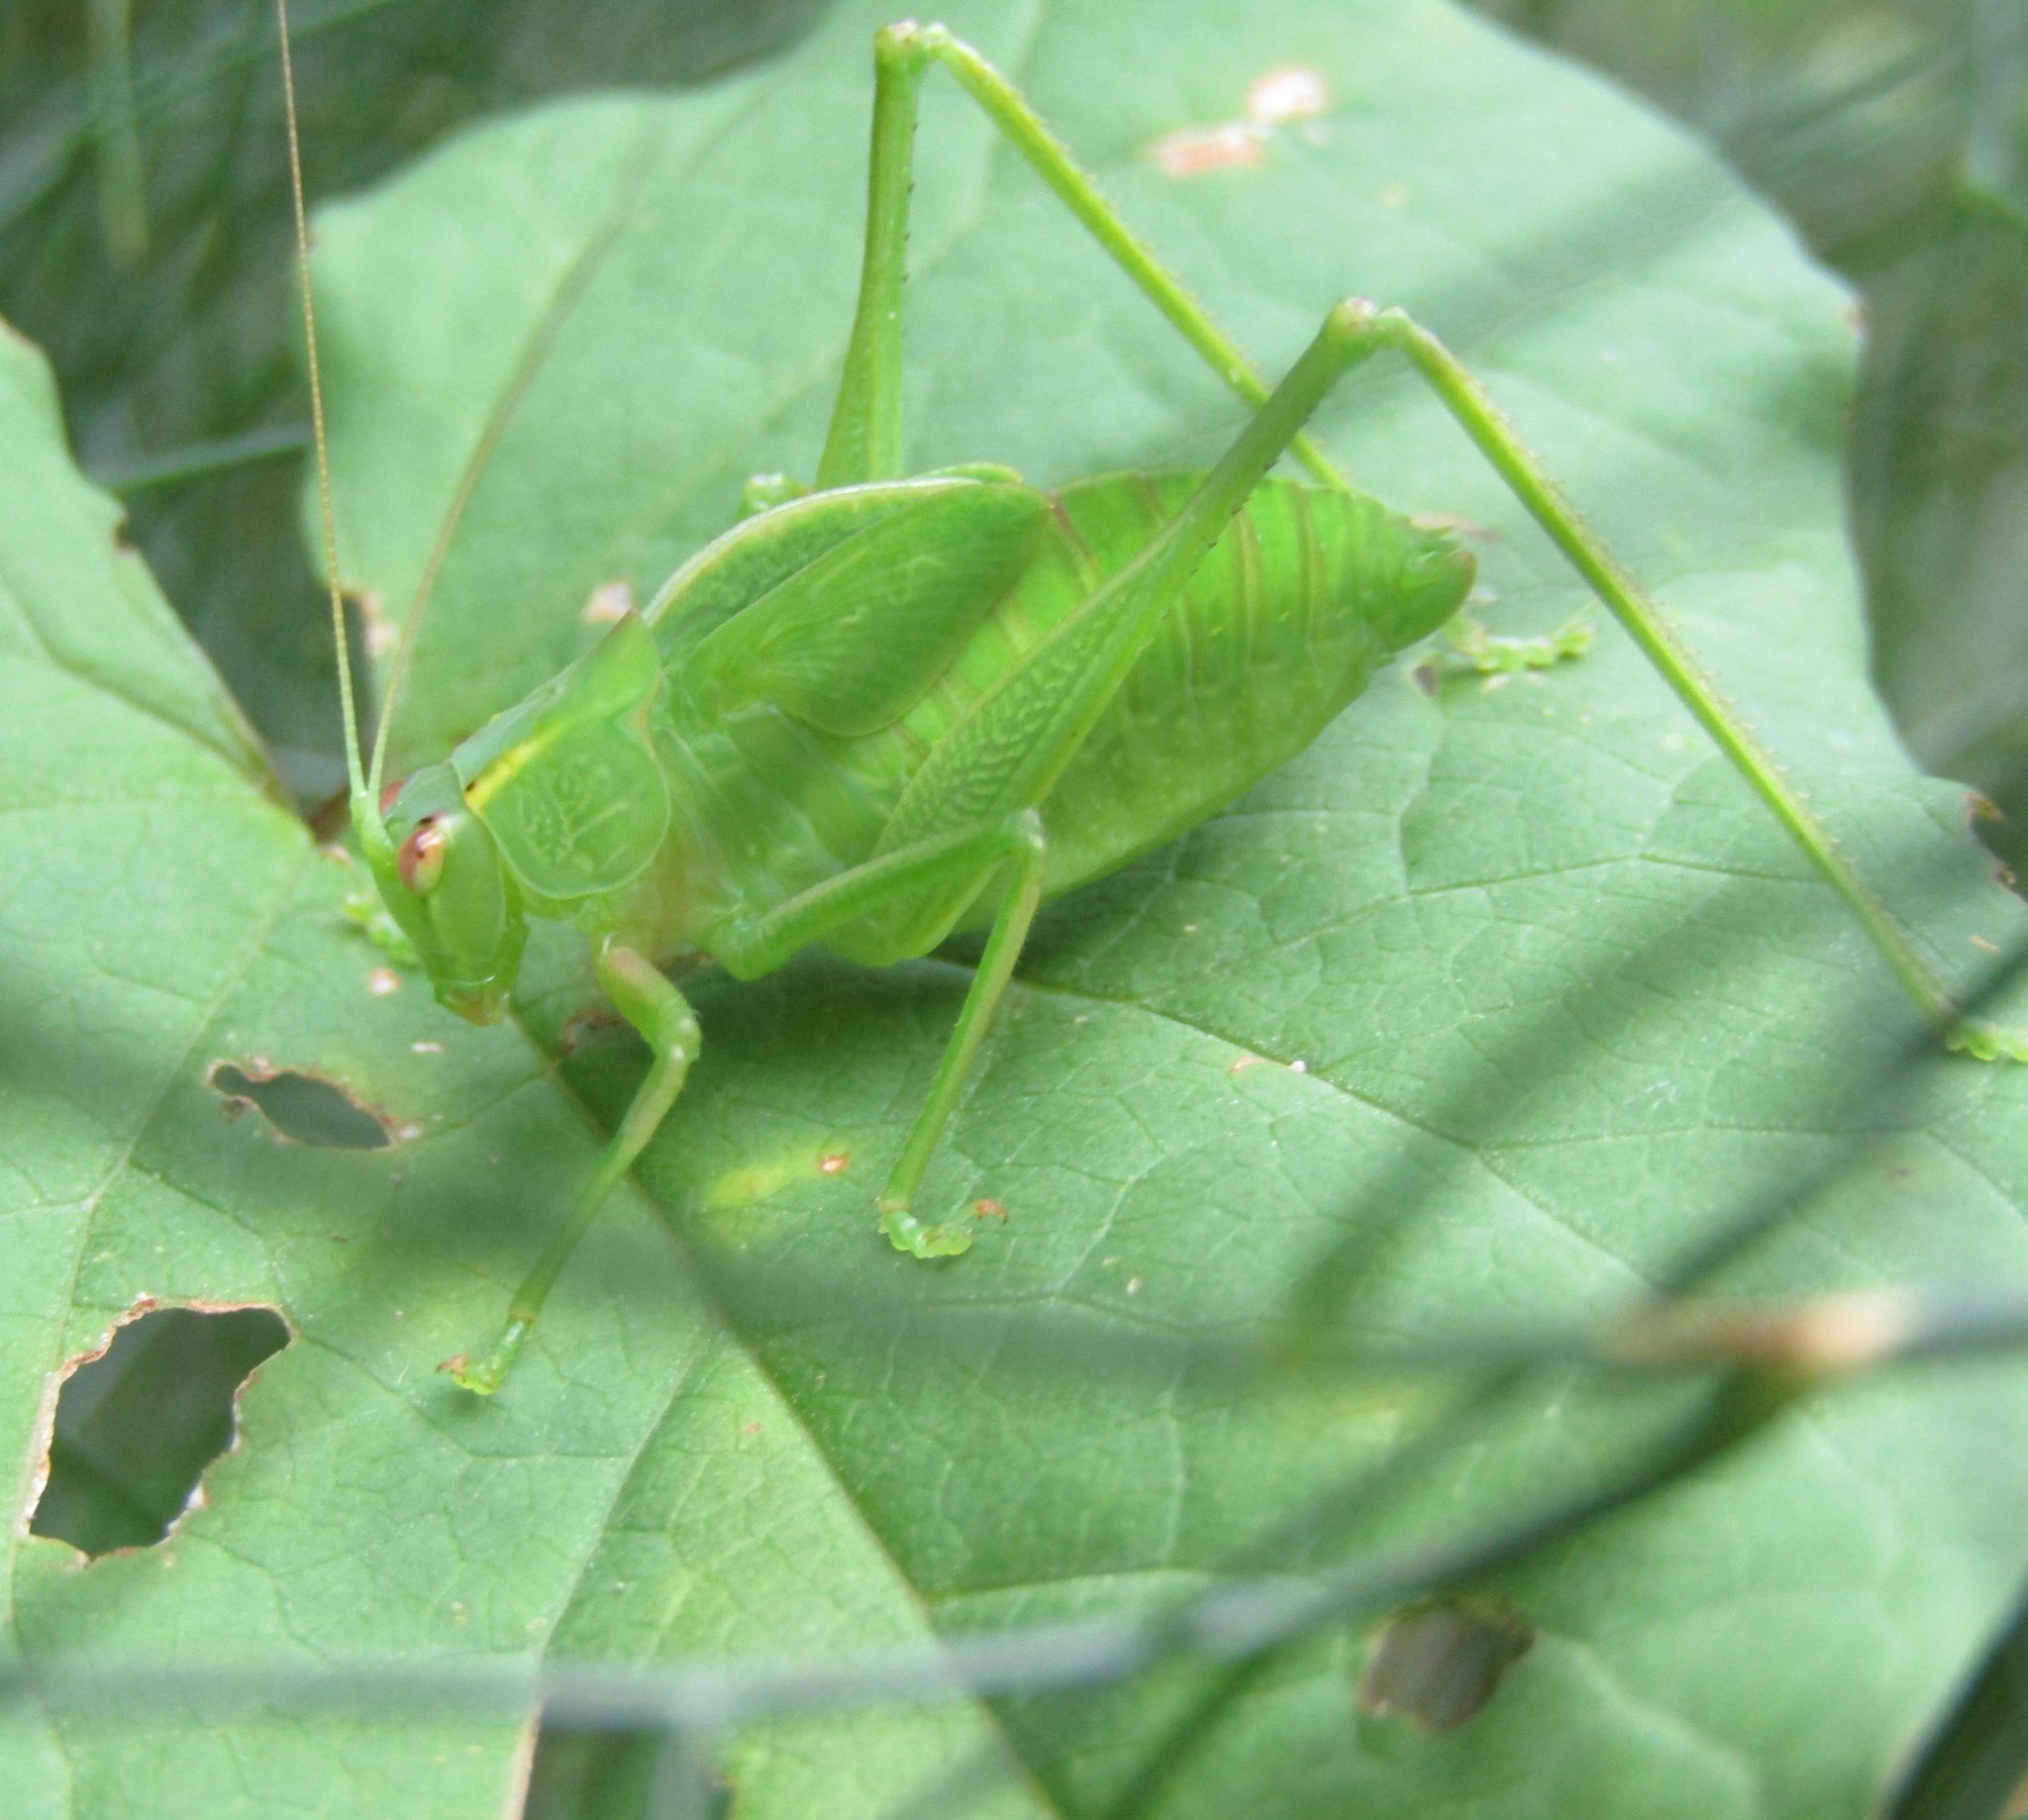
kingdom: Animalia
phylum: Arthropoda
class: Insecta
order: Orthoptera
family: Tettigoniidae
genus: Caedicia
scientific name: Caedicia simplex
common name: Common garden katydid
